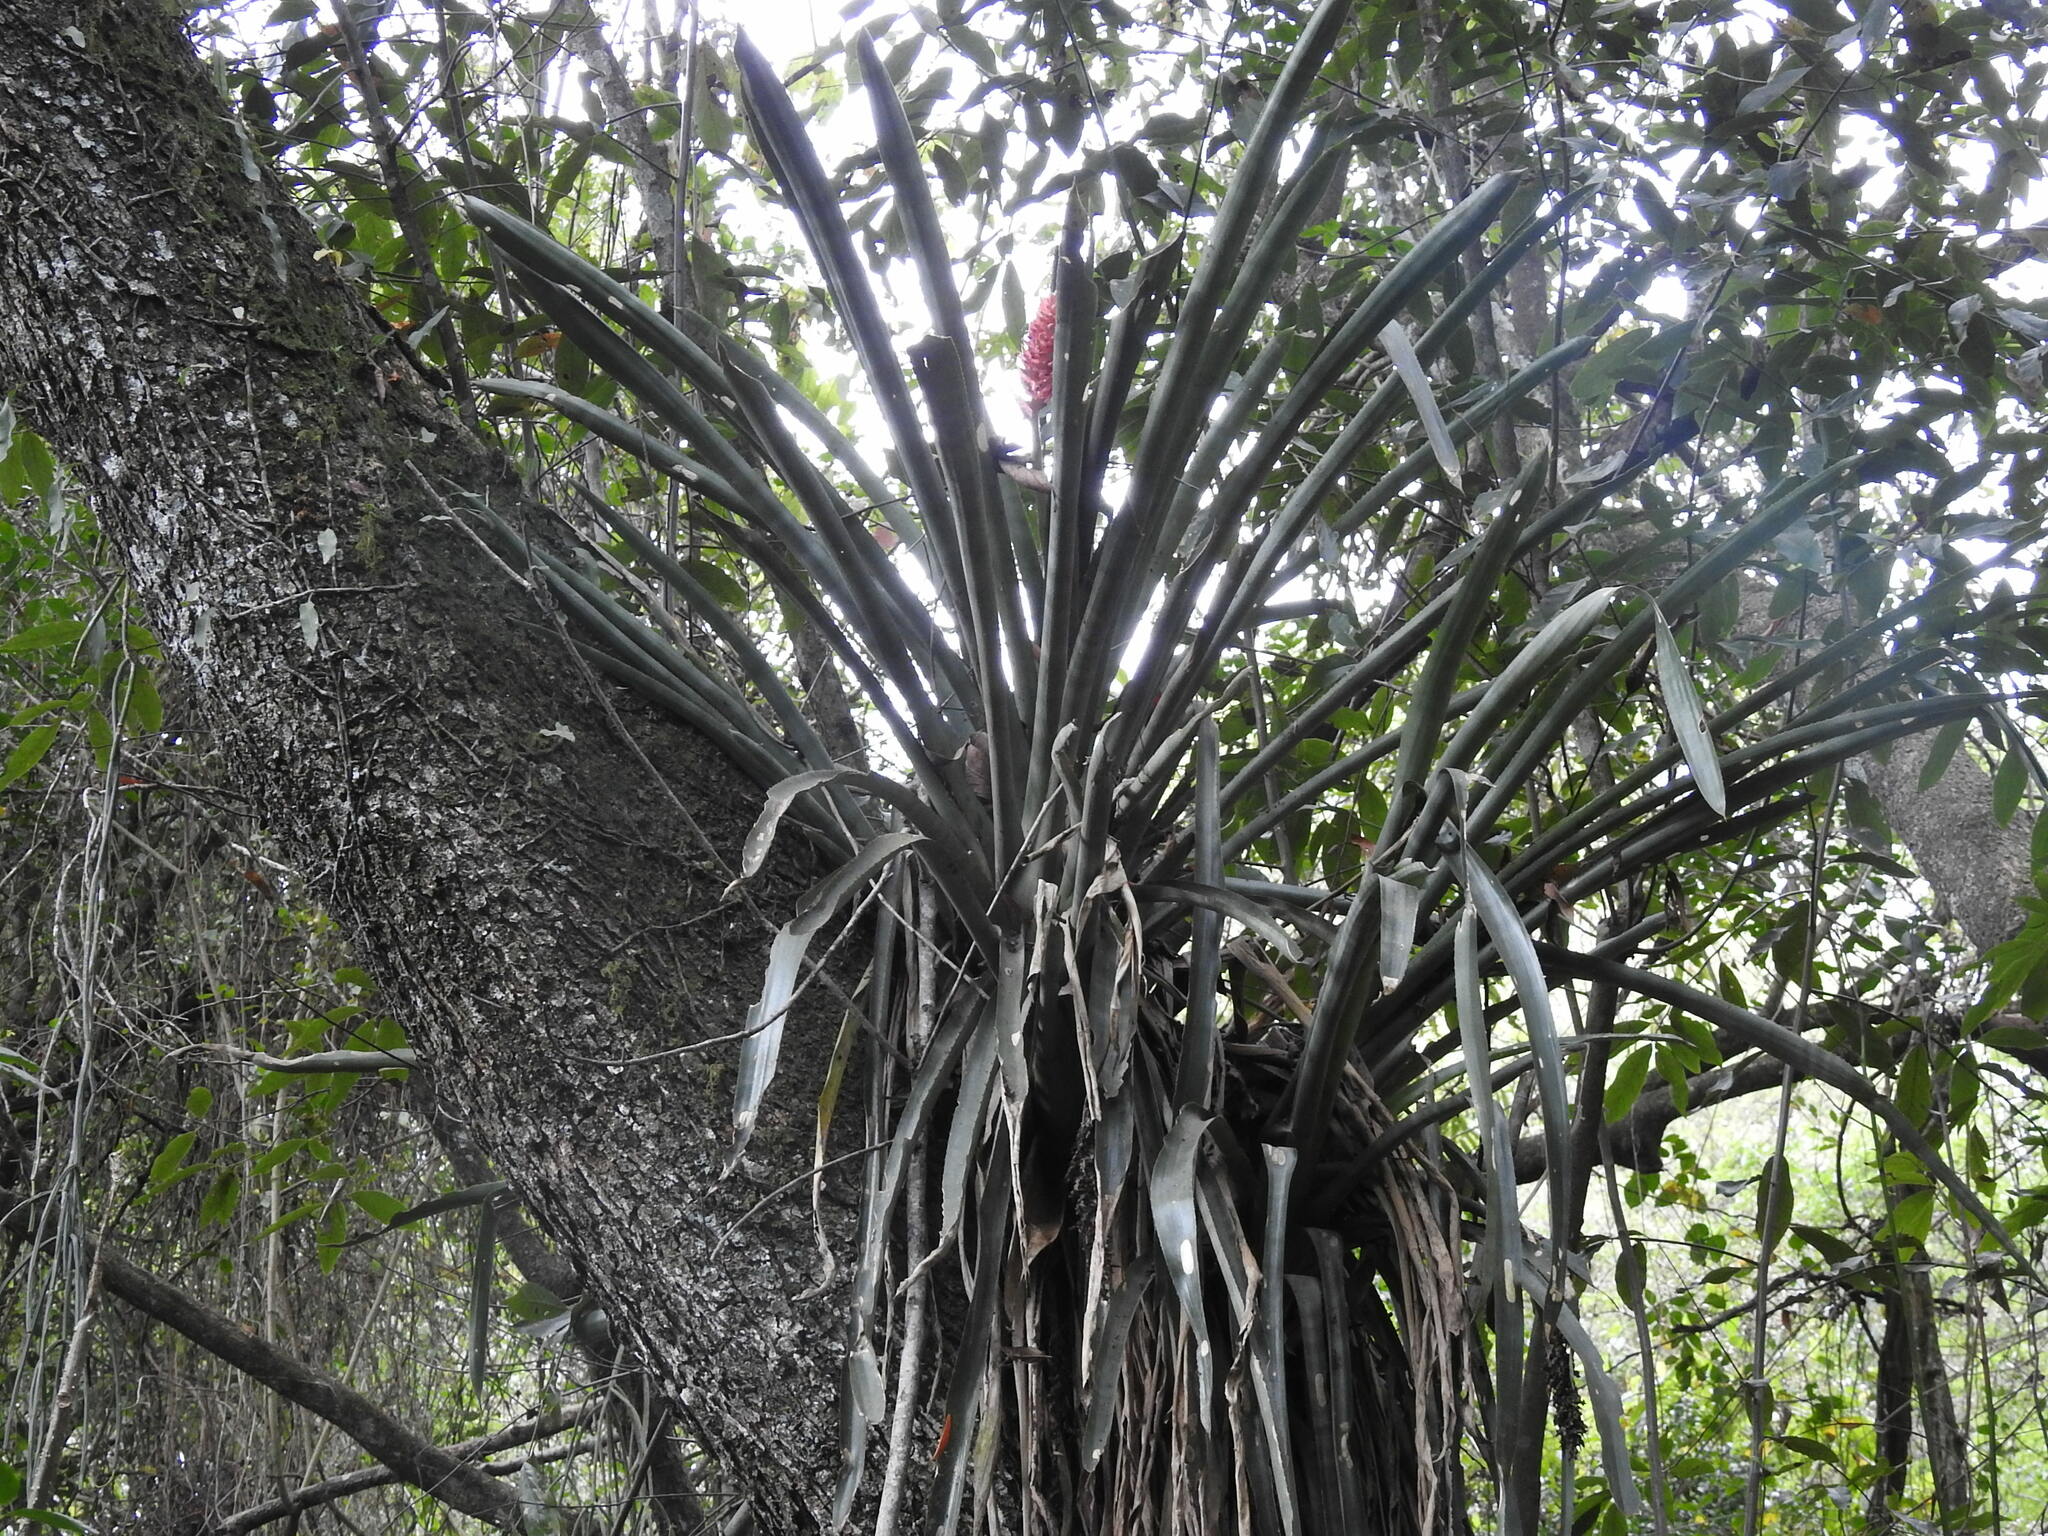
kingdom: Plantae
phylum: Tracheophyta
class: Liliopsida
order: Poales
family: Bromeliaceae
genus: Aechmea
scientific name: Aechmea distichantha
